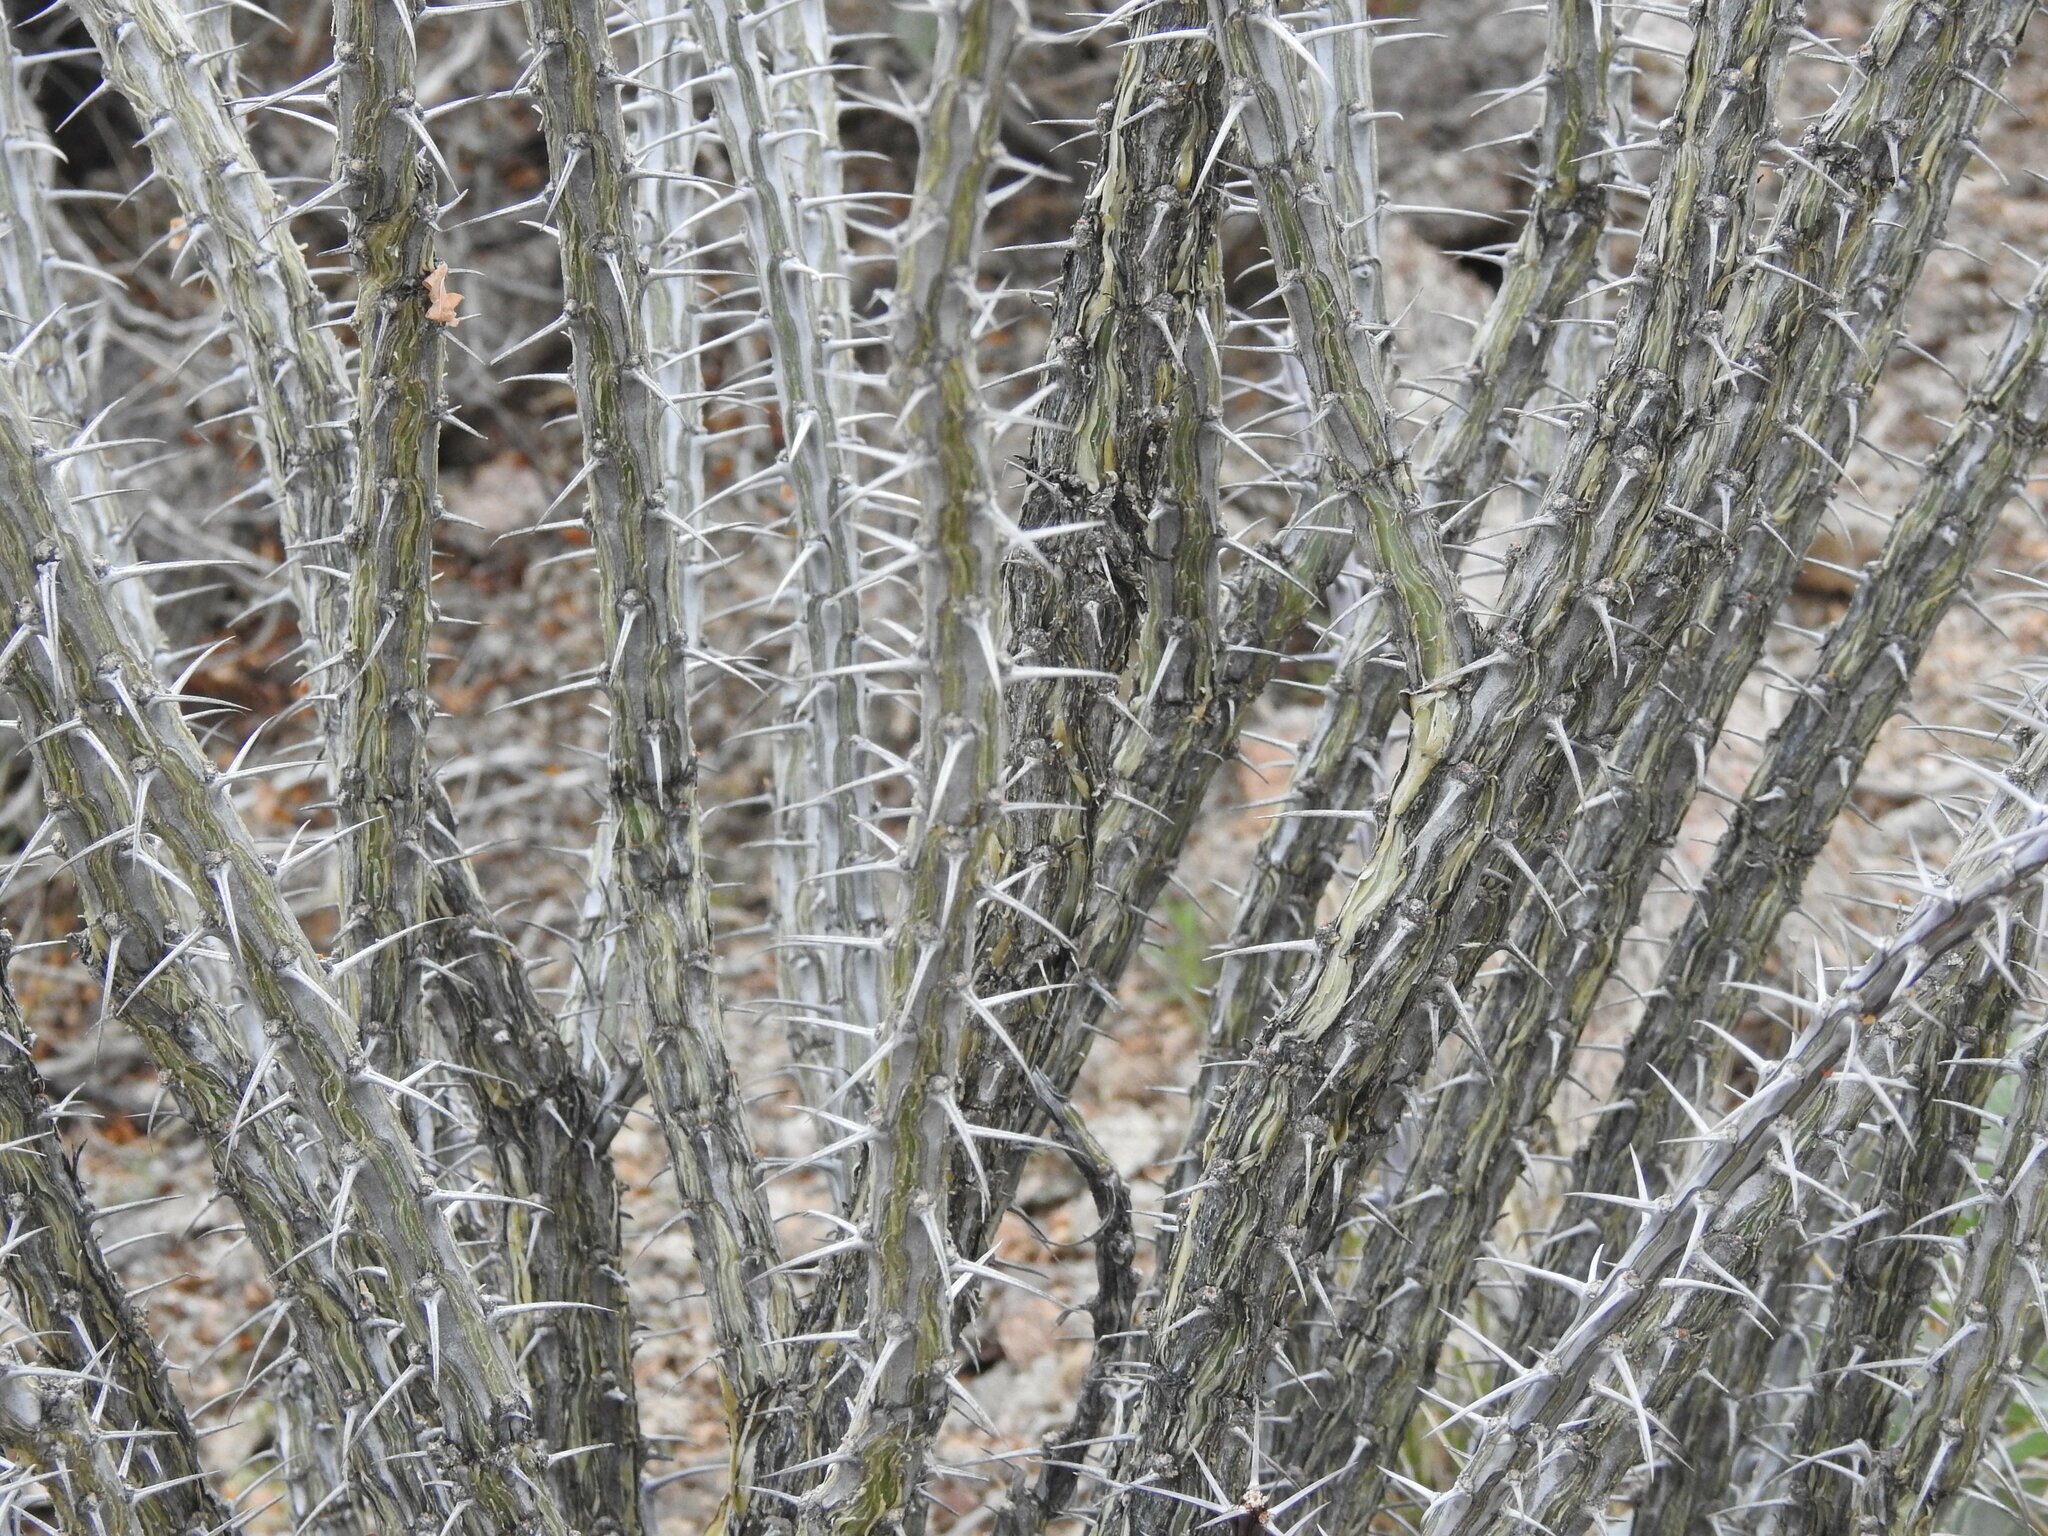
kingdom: Plantae
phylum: Tracheophyta
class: Magnoliopsida
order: Ericales
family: Fouquieriaceae
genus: Fouquieria
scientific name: Fouquieria splendens
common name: Vine-cactus
